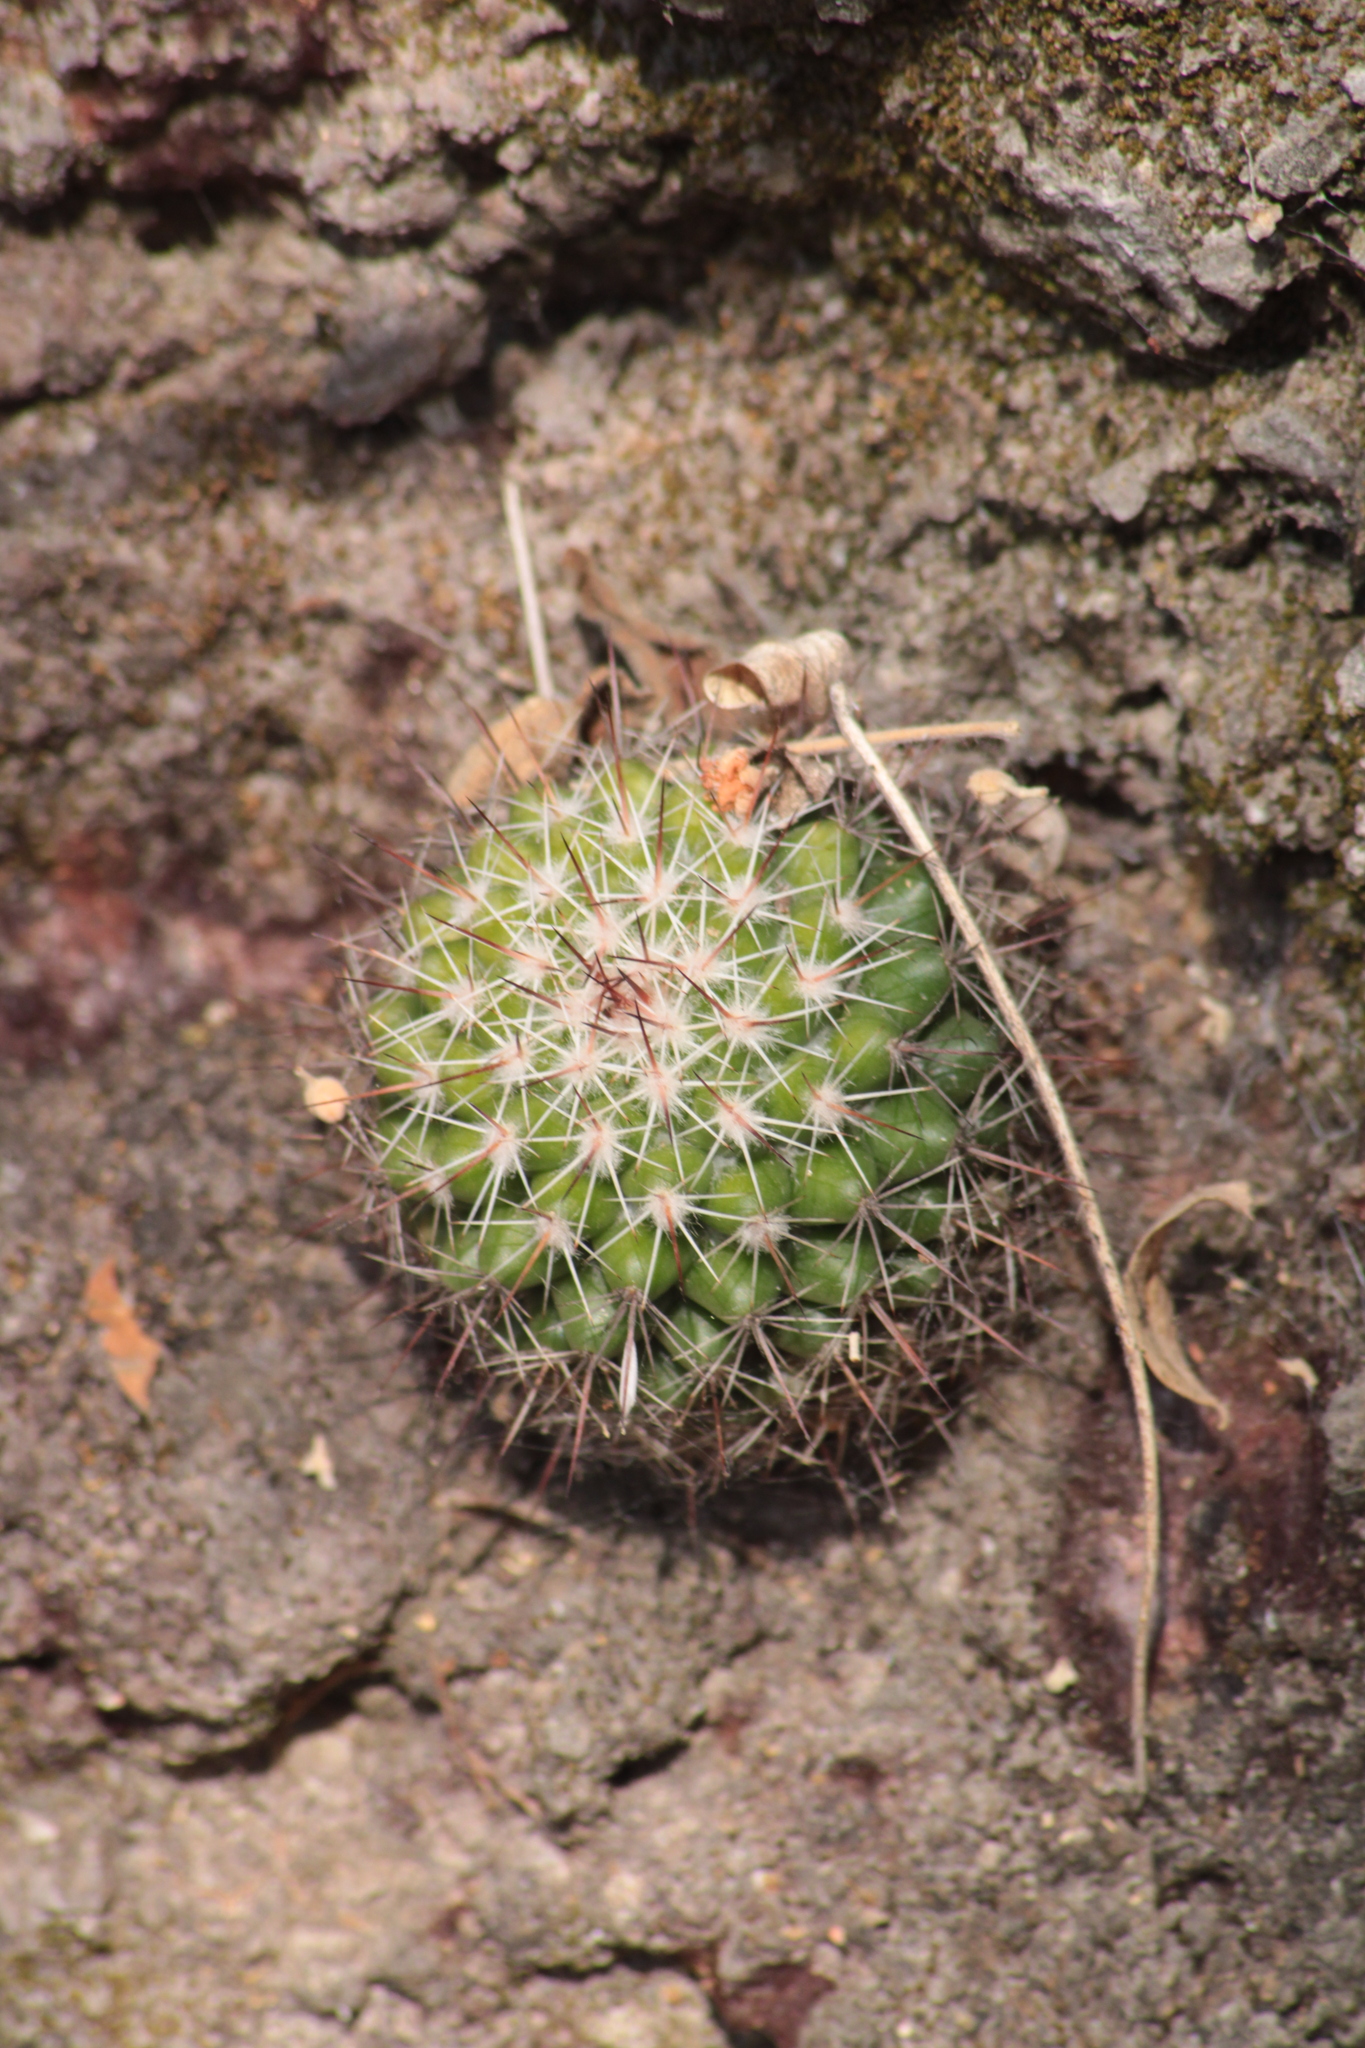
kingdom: Plantae
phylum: Tracheophyta
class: Magnoliopsida
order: Caryophyllales
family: Cactaceae
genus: Mammillaria
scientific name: Mammillaria scrippsiana
